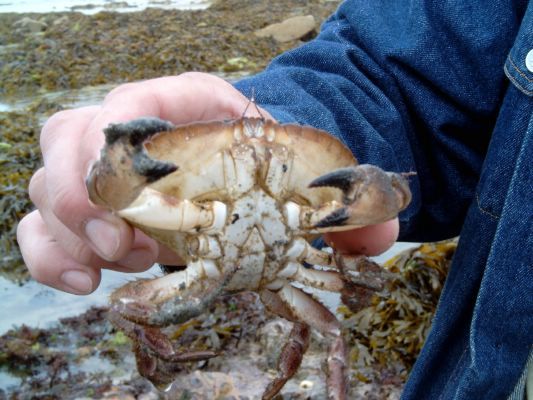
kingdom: Animalia
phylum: Arthropoda
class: Malacostraca
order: Decapoda
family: Cancridae
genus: Cancer
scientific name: Cancer pagurus
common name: Edible crab
